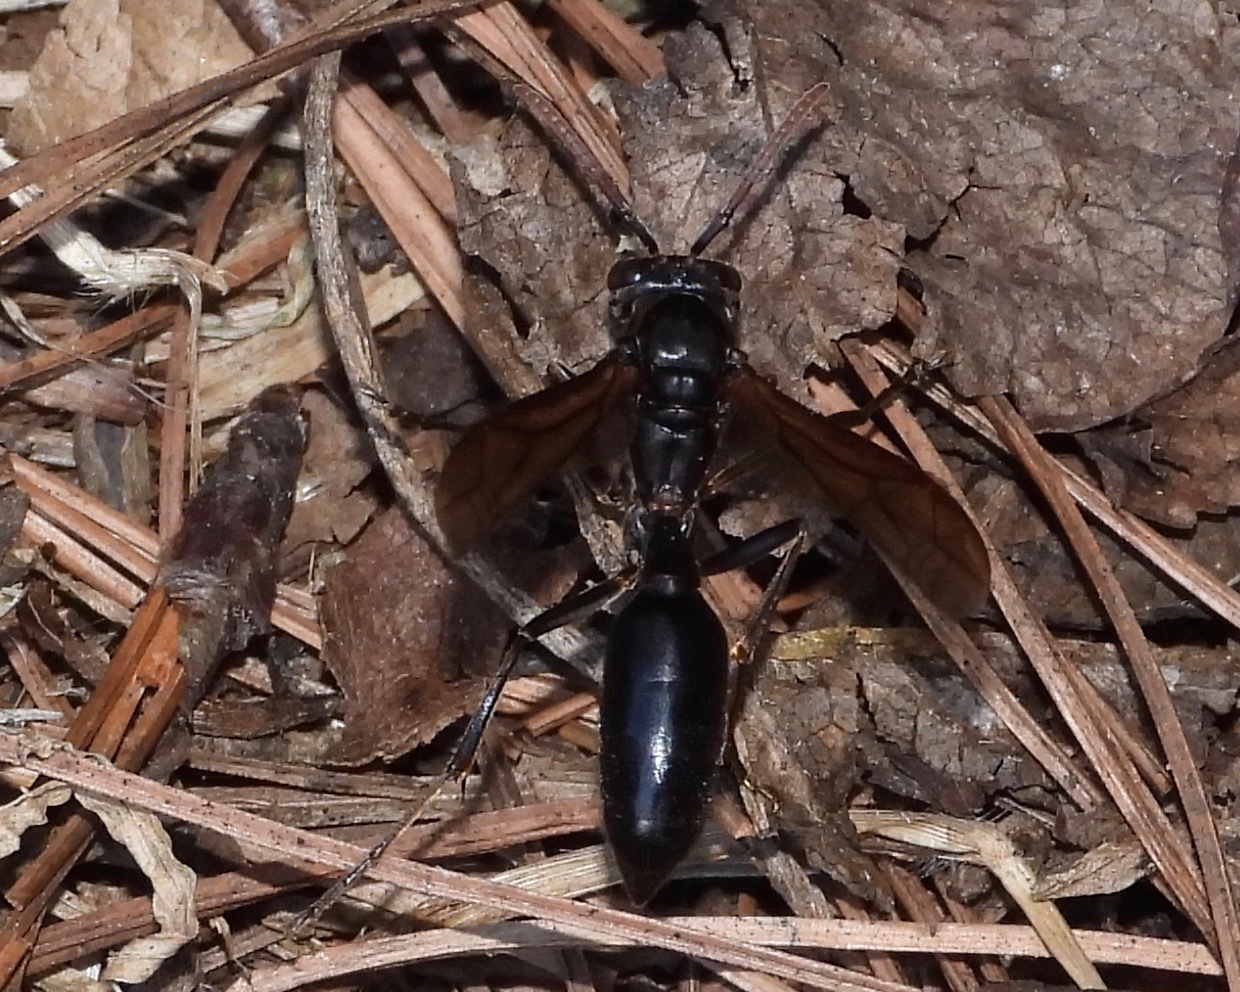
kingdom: Animalia
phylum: Arthropoda
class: Insecta
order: Hymenoptera
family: Vespidae
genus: Agelaia
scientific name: Agelaia panamensis
